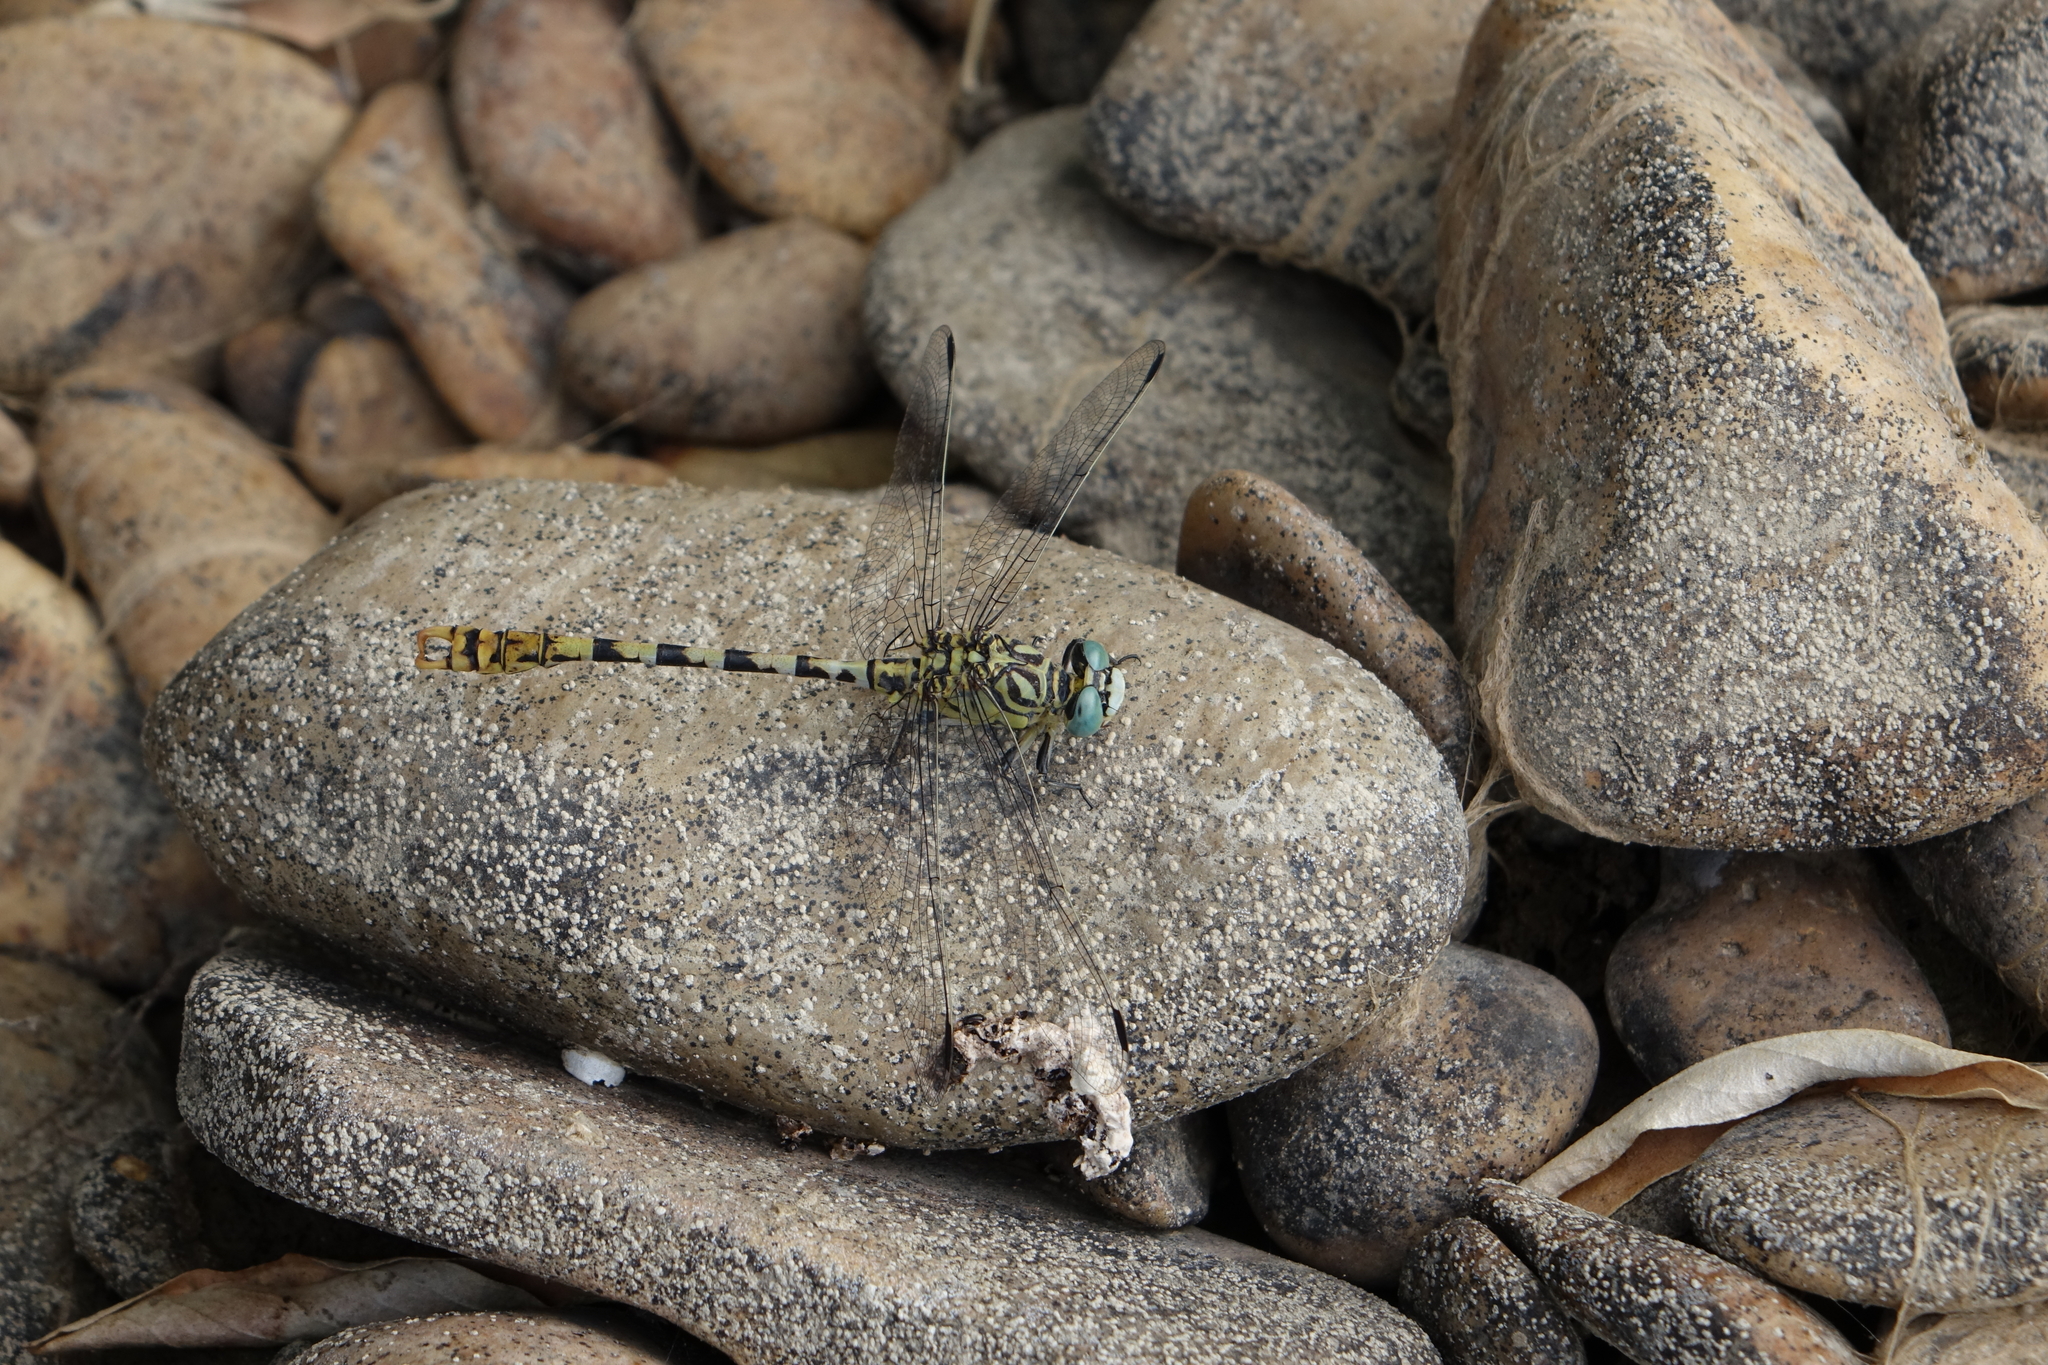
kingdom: Animalia
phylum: Arthropoda
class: Insecta
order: Odonata
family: Gomphidae
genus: Onychogomphus
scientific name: Onychogomphus forcipatus
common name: Small pincertail
